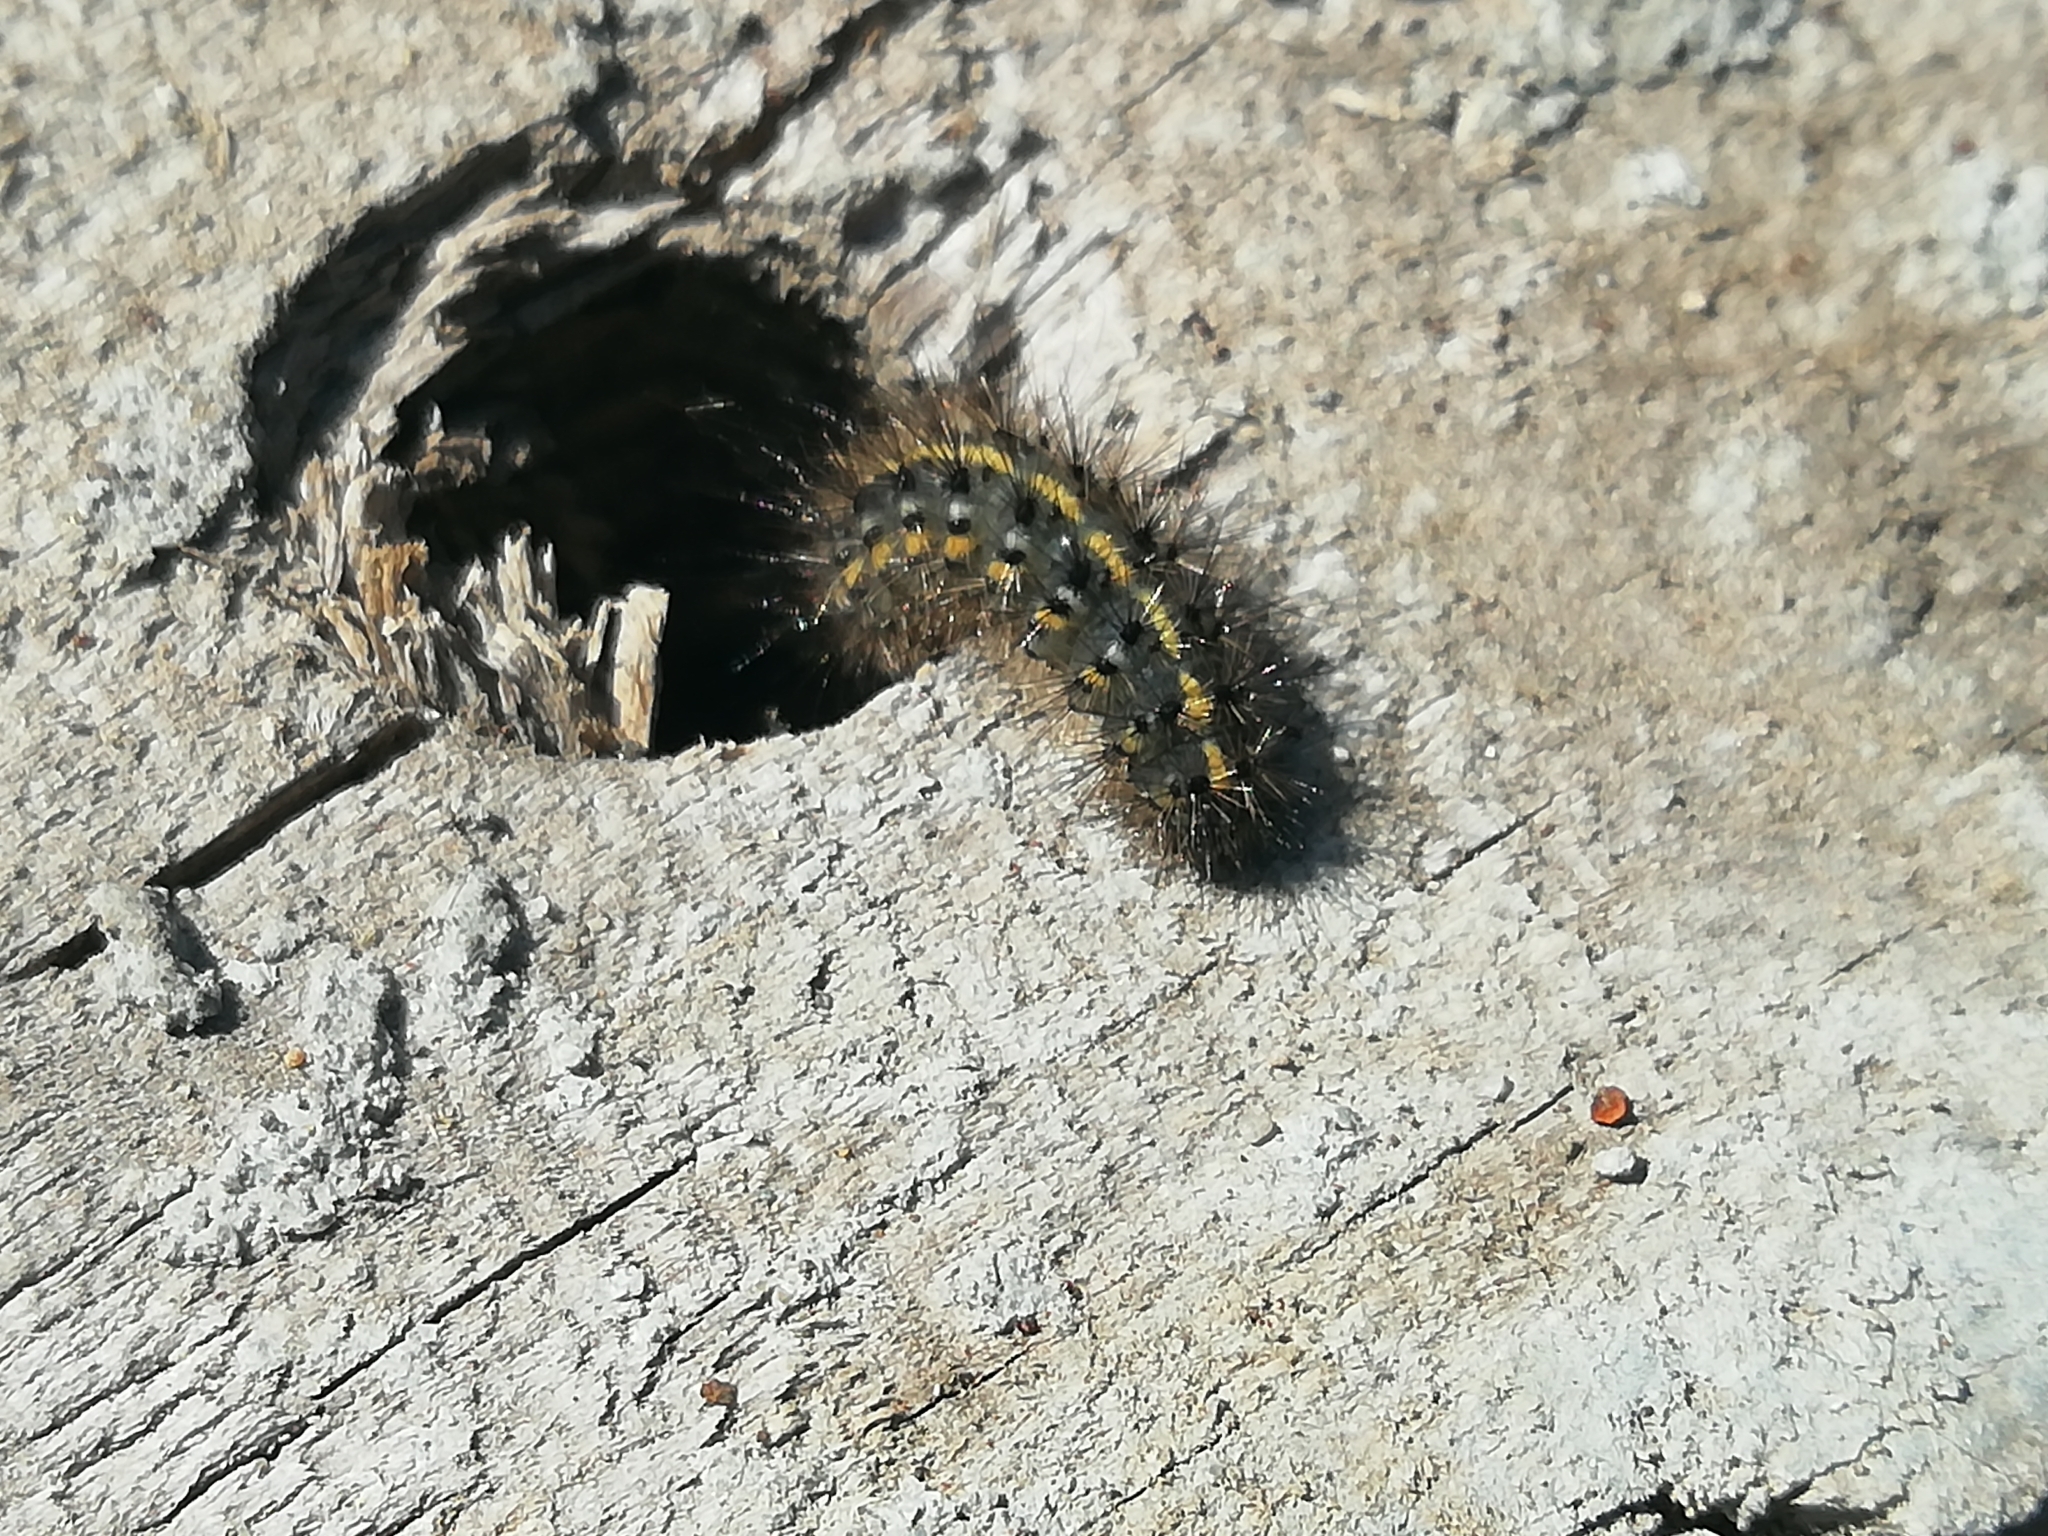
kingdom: Animalia
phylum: Arthropoda
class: Insecta
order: Lepidoptera
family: Erebidae
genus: Phragmatobia
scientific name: Phragmatobia fuliginosa
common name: Ruby tiger
